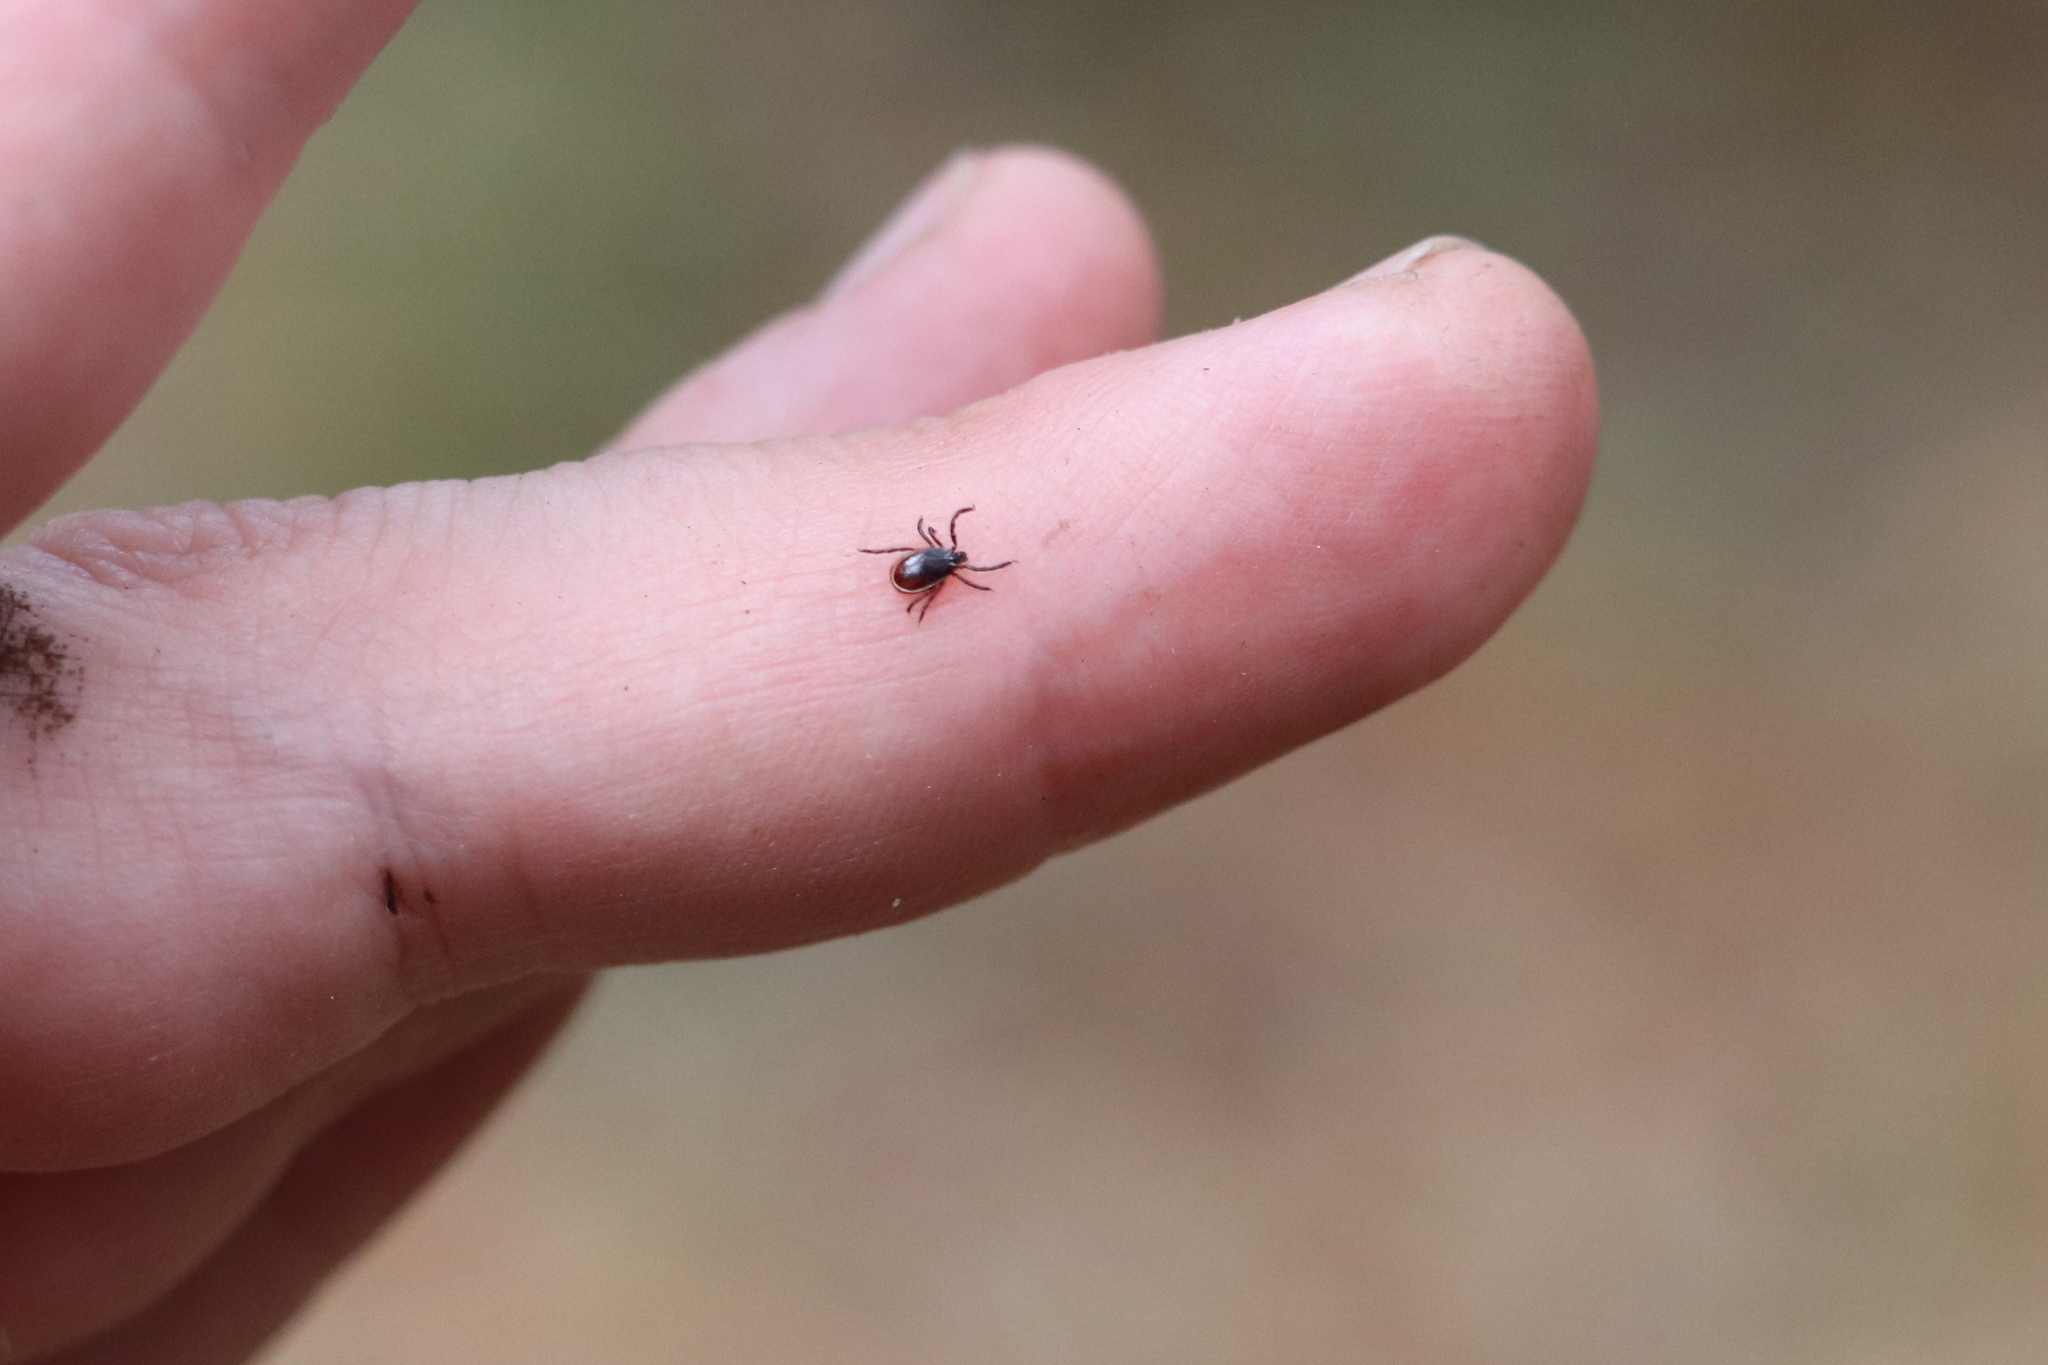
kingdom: Animalia
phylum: Arthropoda
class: Arachnida
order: Ixodida
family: Ixodidae
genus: Ixodes
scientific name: Ixodes persulcatus
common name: Taiga tick
